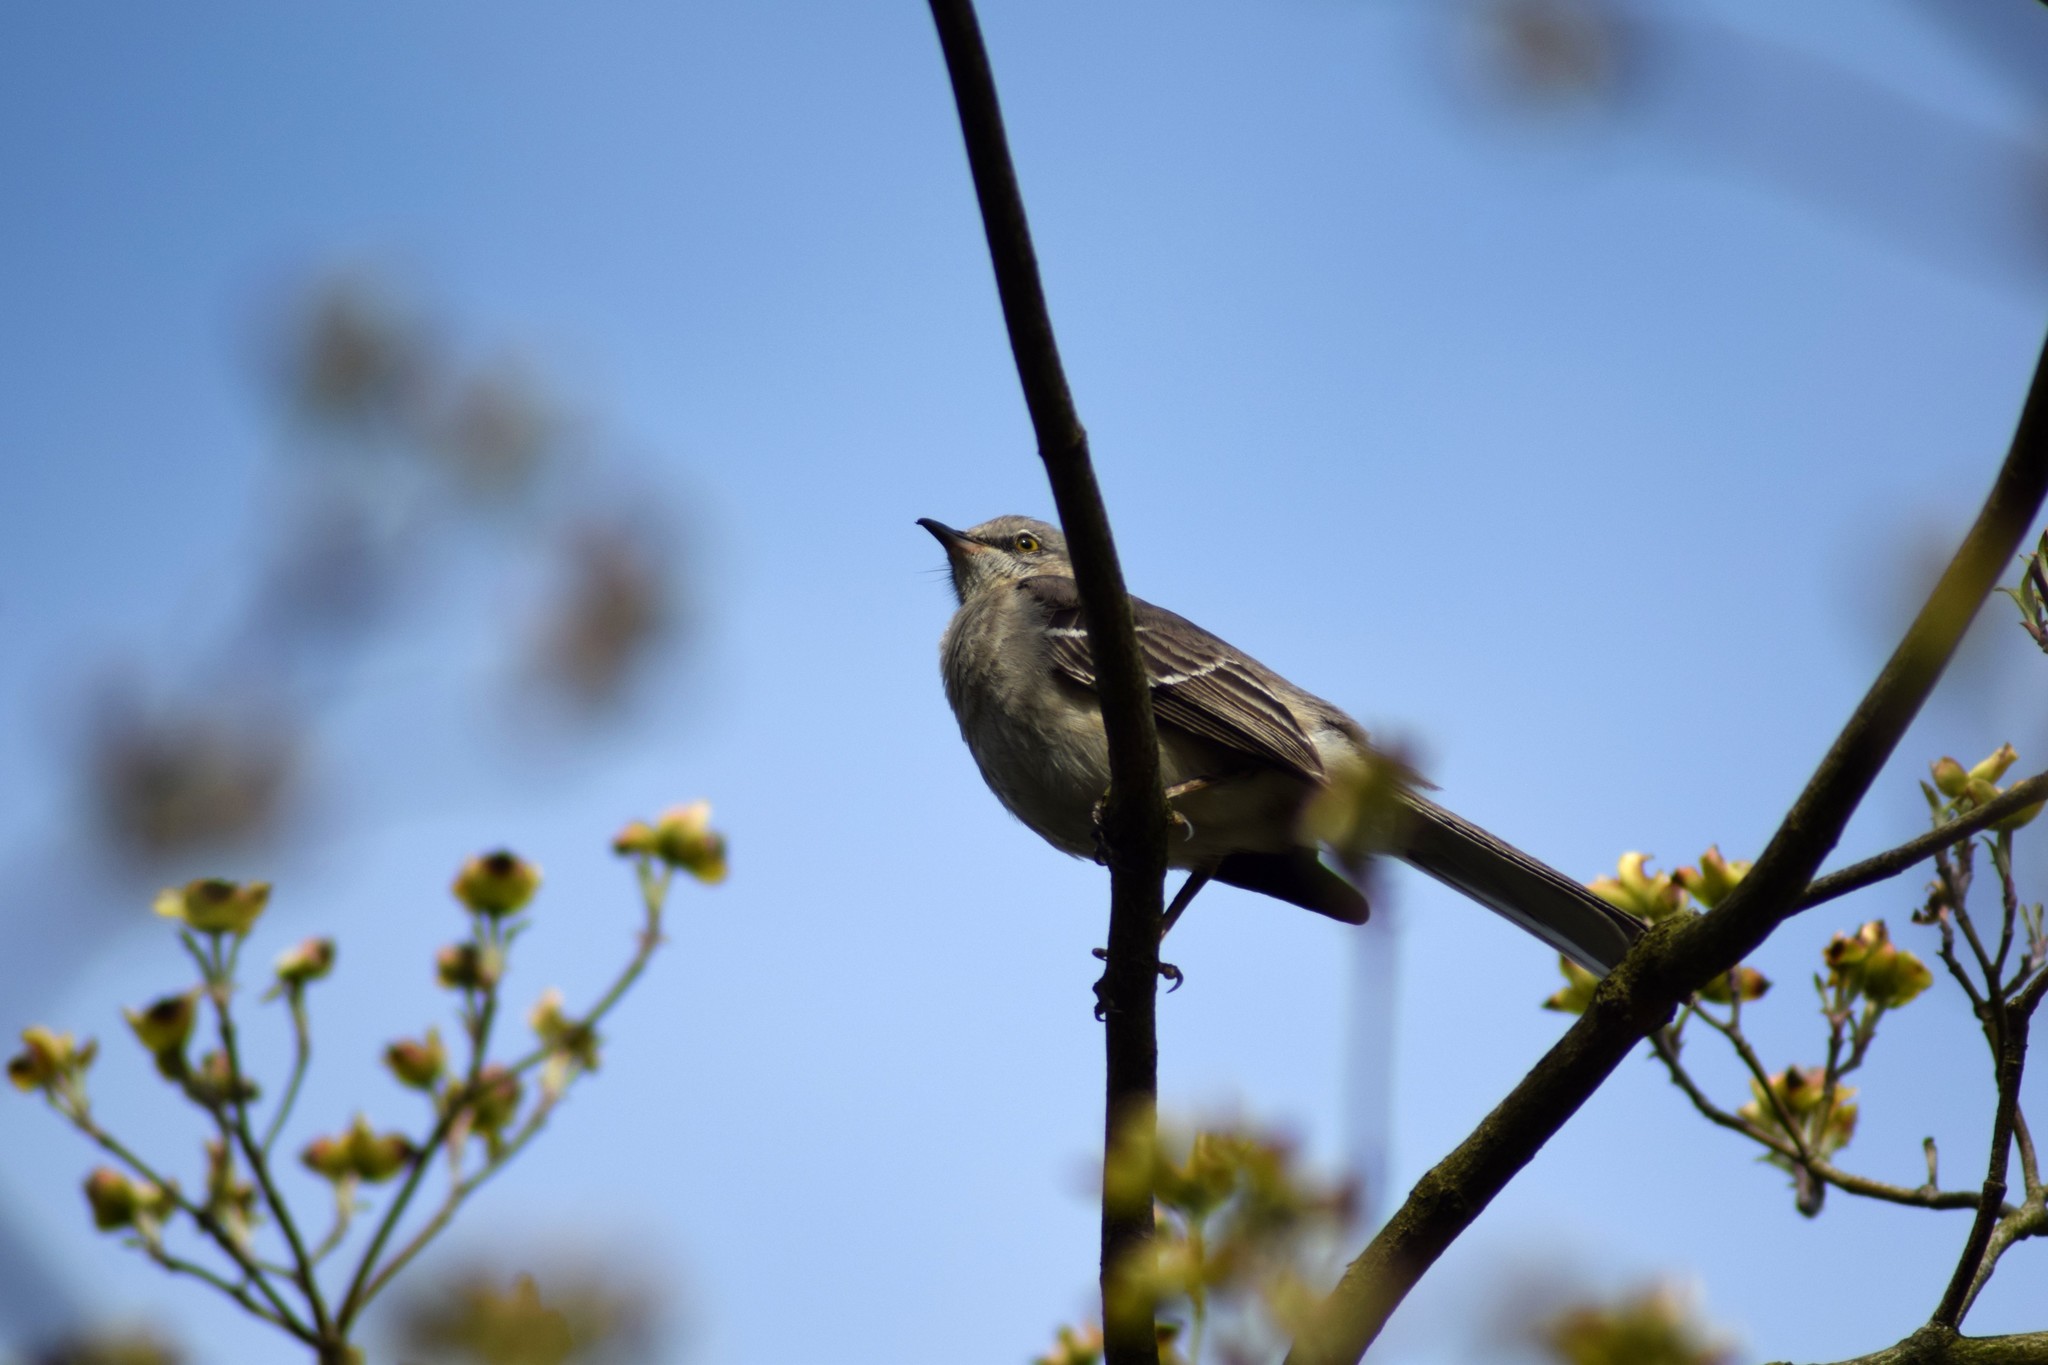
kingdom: Animalia
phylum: Chordata
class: Aves
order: Passeriformes
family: Mimidae
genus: Mimus
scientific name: Mimus polyglottos
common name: Northern mockingbird
